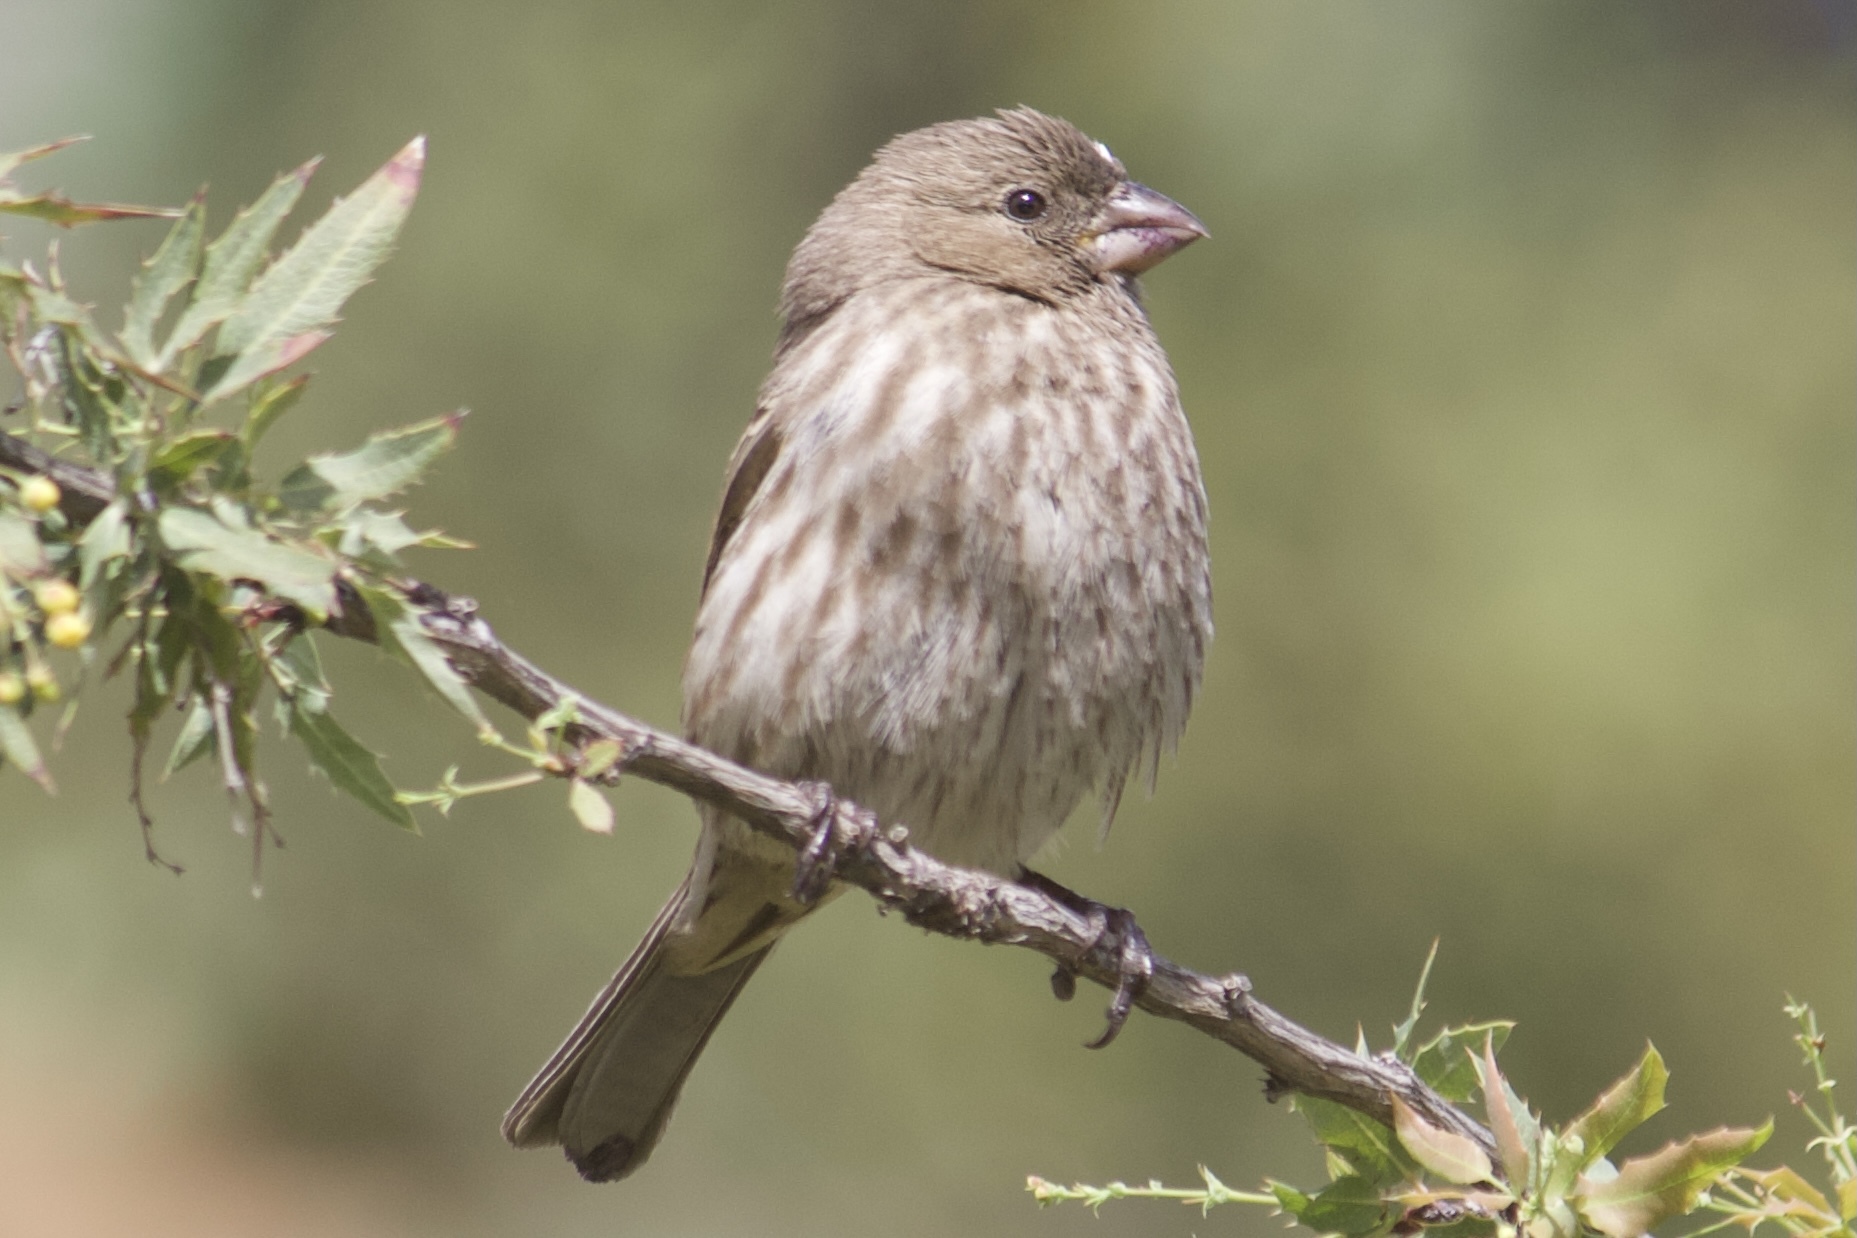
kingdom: Animalia
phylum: Chordata
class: Aves
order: Passeriformes
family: Fringillidae
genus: Haemorhous
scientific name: Haemorhous mexicanus
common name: House finch
